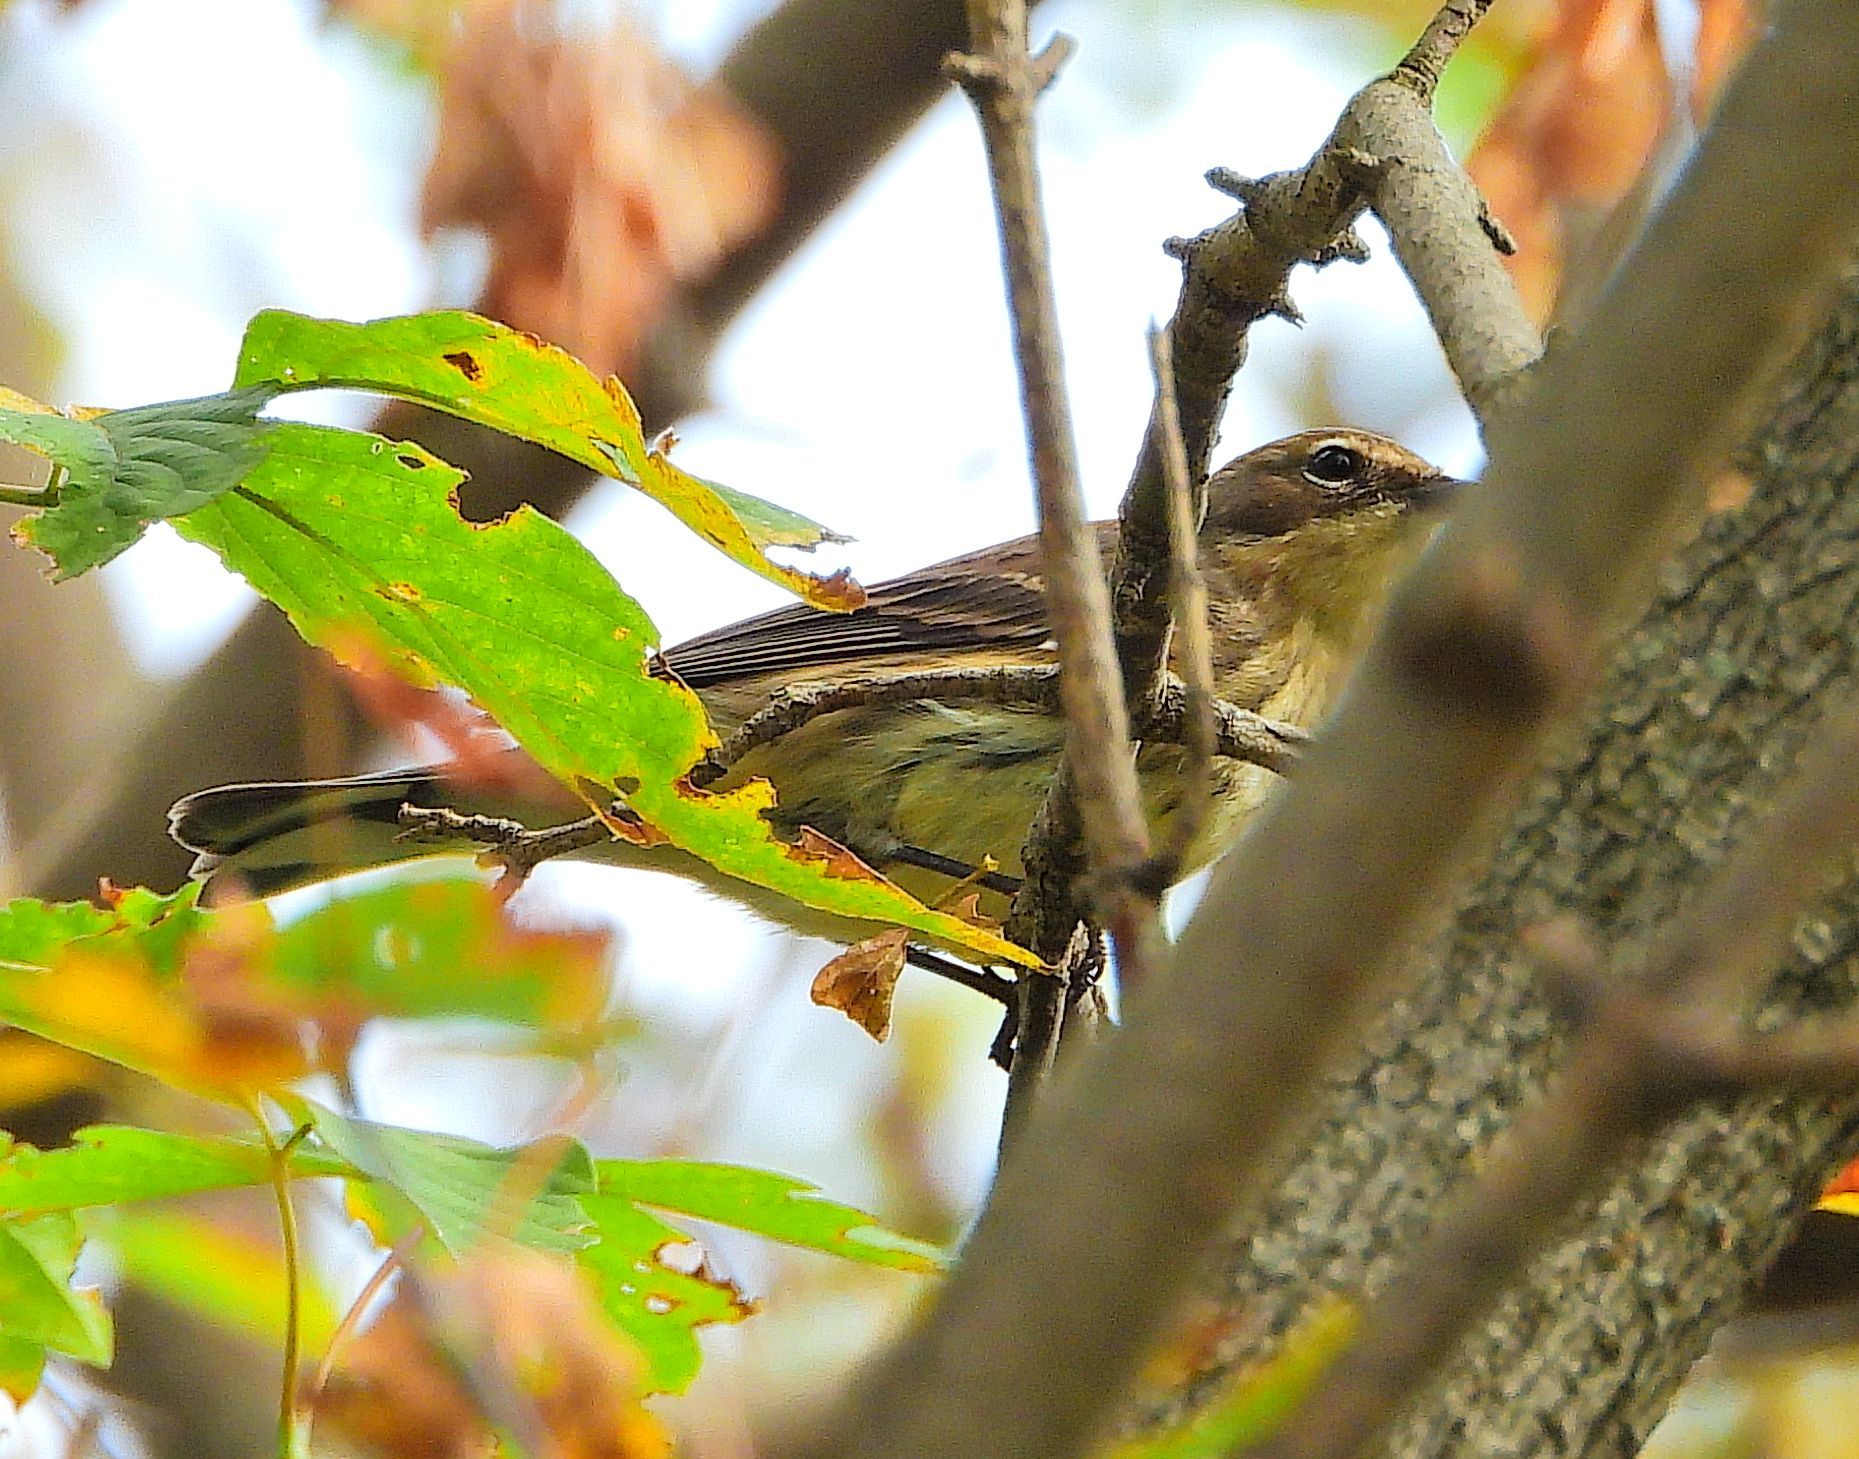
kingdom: Animalia
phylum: Chordata
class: Aves
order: Passeriformes
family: Parulidae
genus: Setophaga
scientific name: Setophaga coronata
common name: Myrtle warbler
